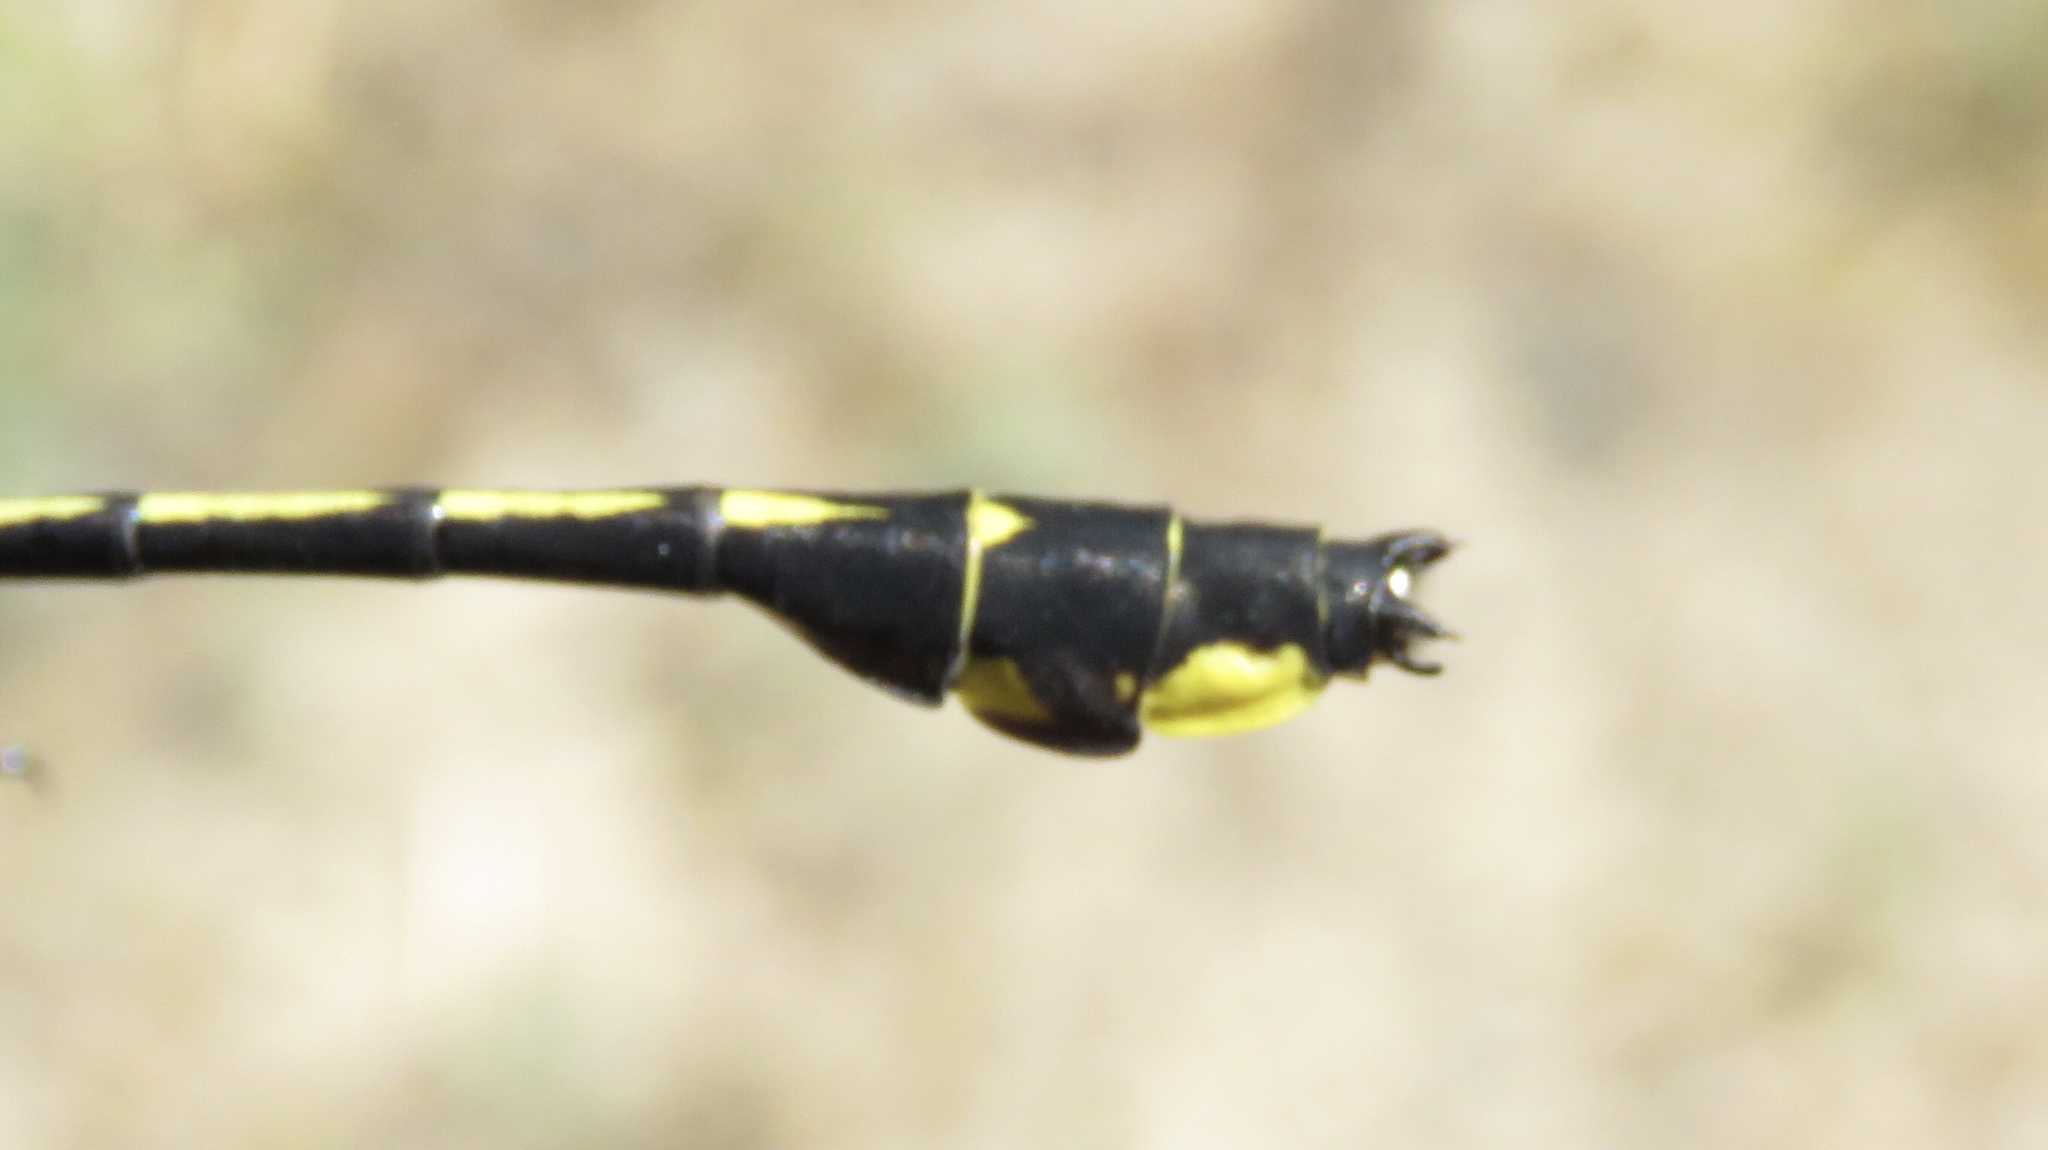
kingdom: Animalia
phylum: Arthropoda
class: Insecta
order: Odonata
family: Gomphidae
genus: Gomphurus
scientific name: Gomphurus fraternus
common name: Midland clubtail
